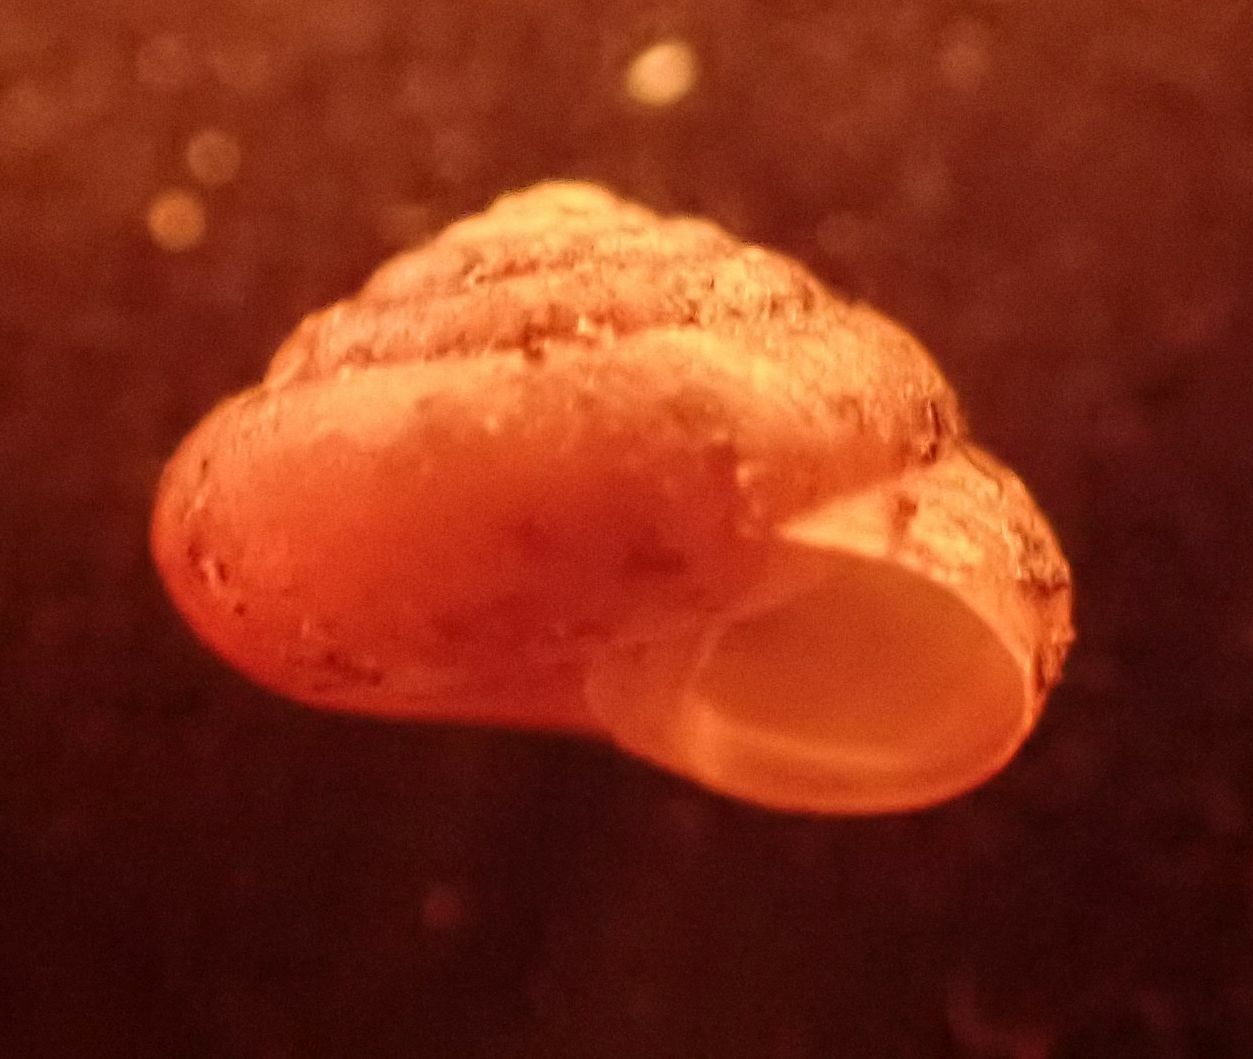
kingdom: Animalia
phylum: Mollusca
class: Gastropoda
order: Stylommatophora
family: Hygromiidae
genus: Trochulus
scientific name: Trochulus hispidus
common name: Hairy snail
